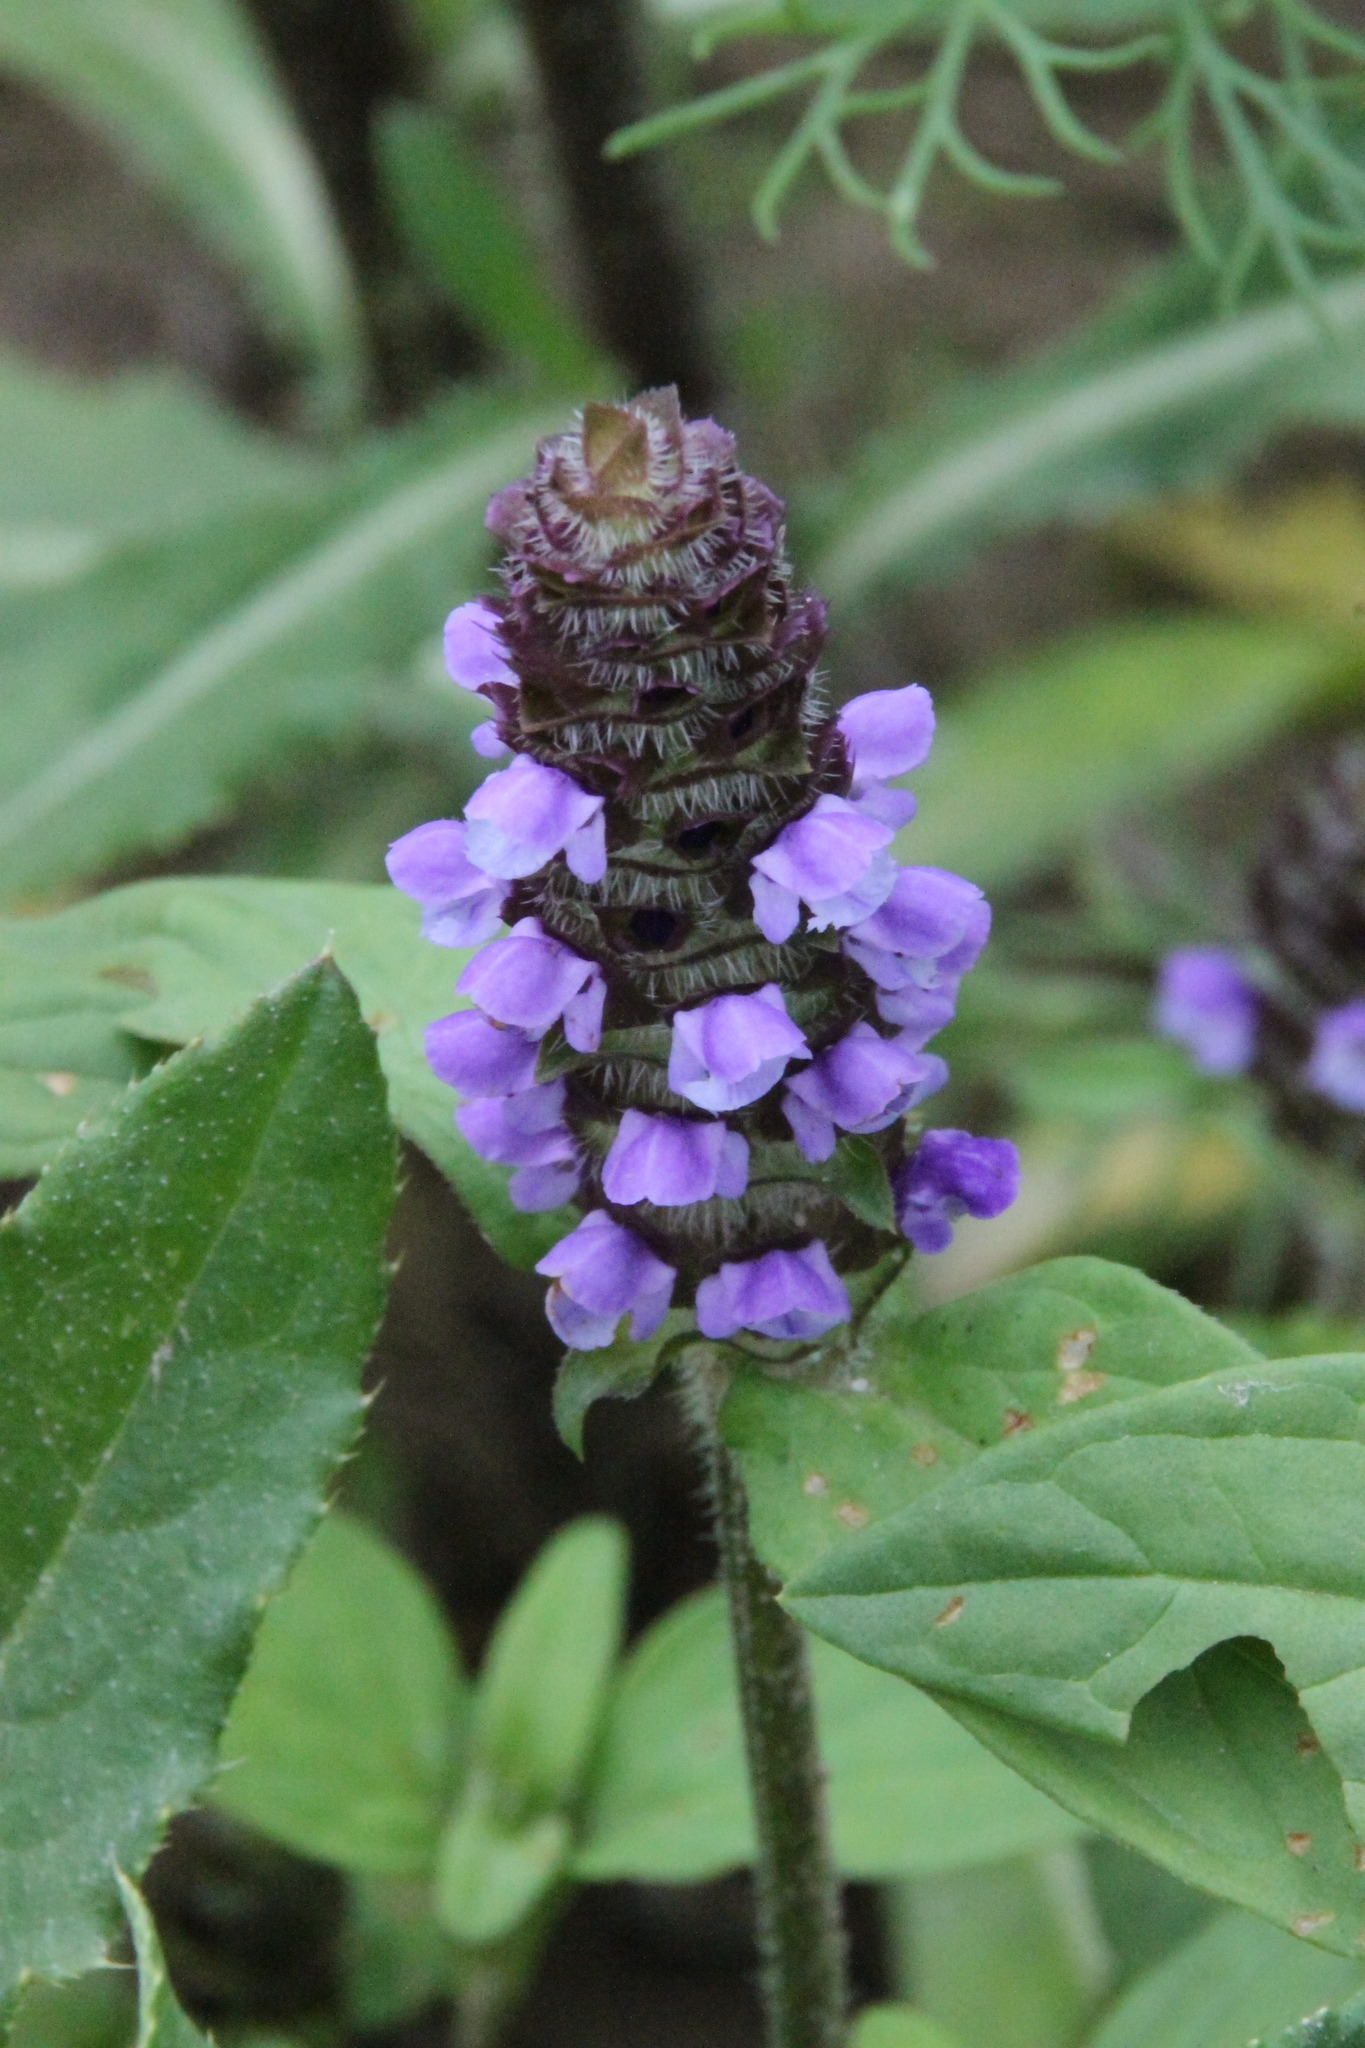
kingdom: Plantae
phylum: Tracheophyta
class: Magnoliopsida
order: Lamiales
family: Lamiaceae
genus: Prunella
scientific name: Prunella vulgaris
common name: Heal-all
